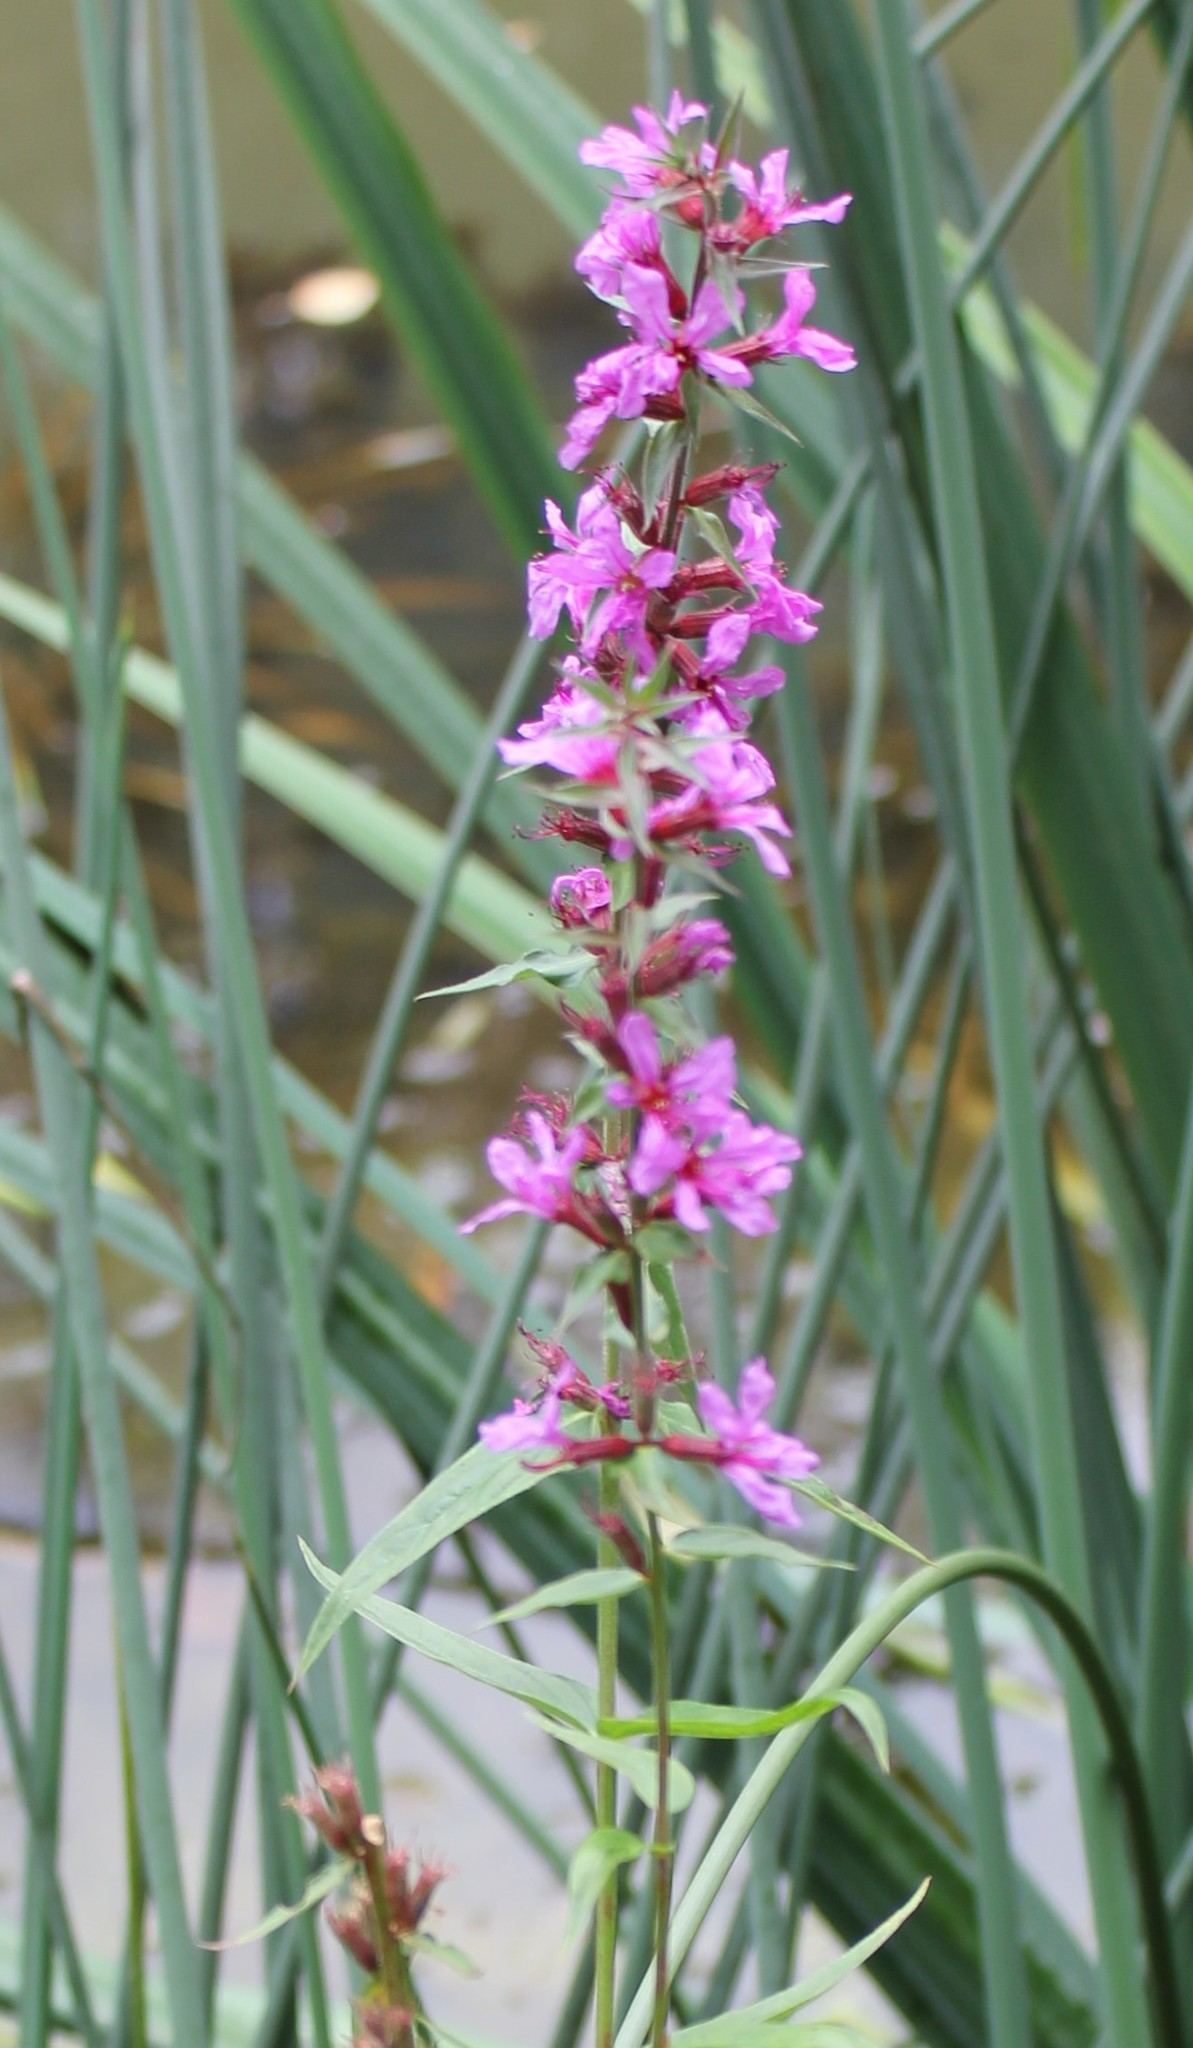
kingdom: Plantae
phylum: Tracheophyta
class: Magnoliopsida
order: Myrtales
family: Lythraceae
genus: Lythrum
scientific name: Lythrum salicaria
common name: Purple loosestrife
